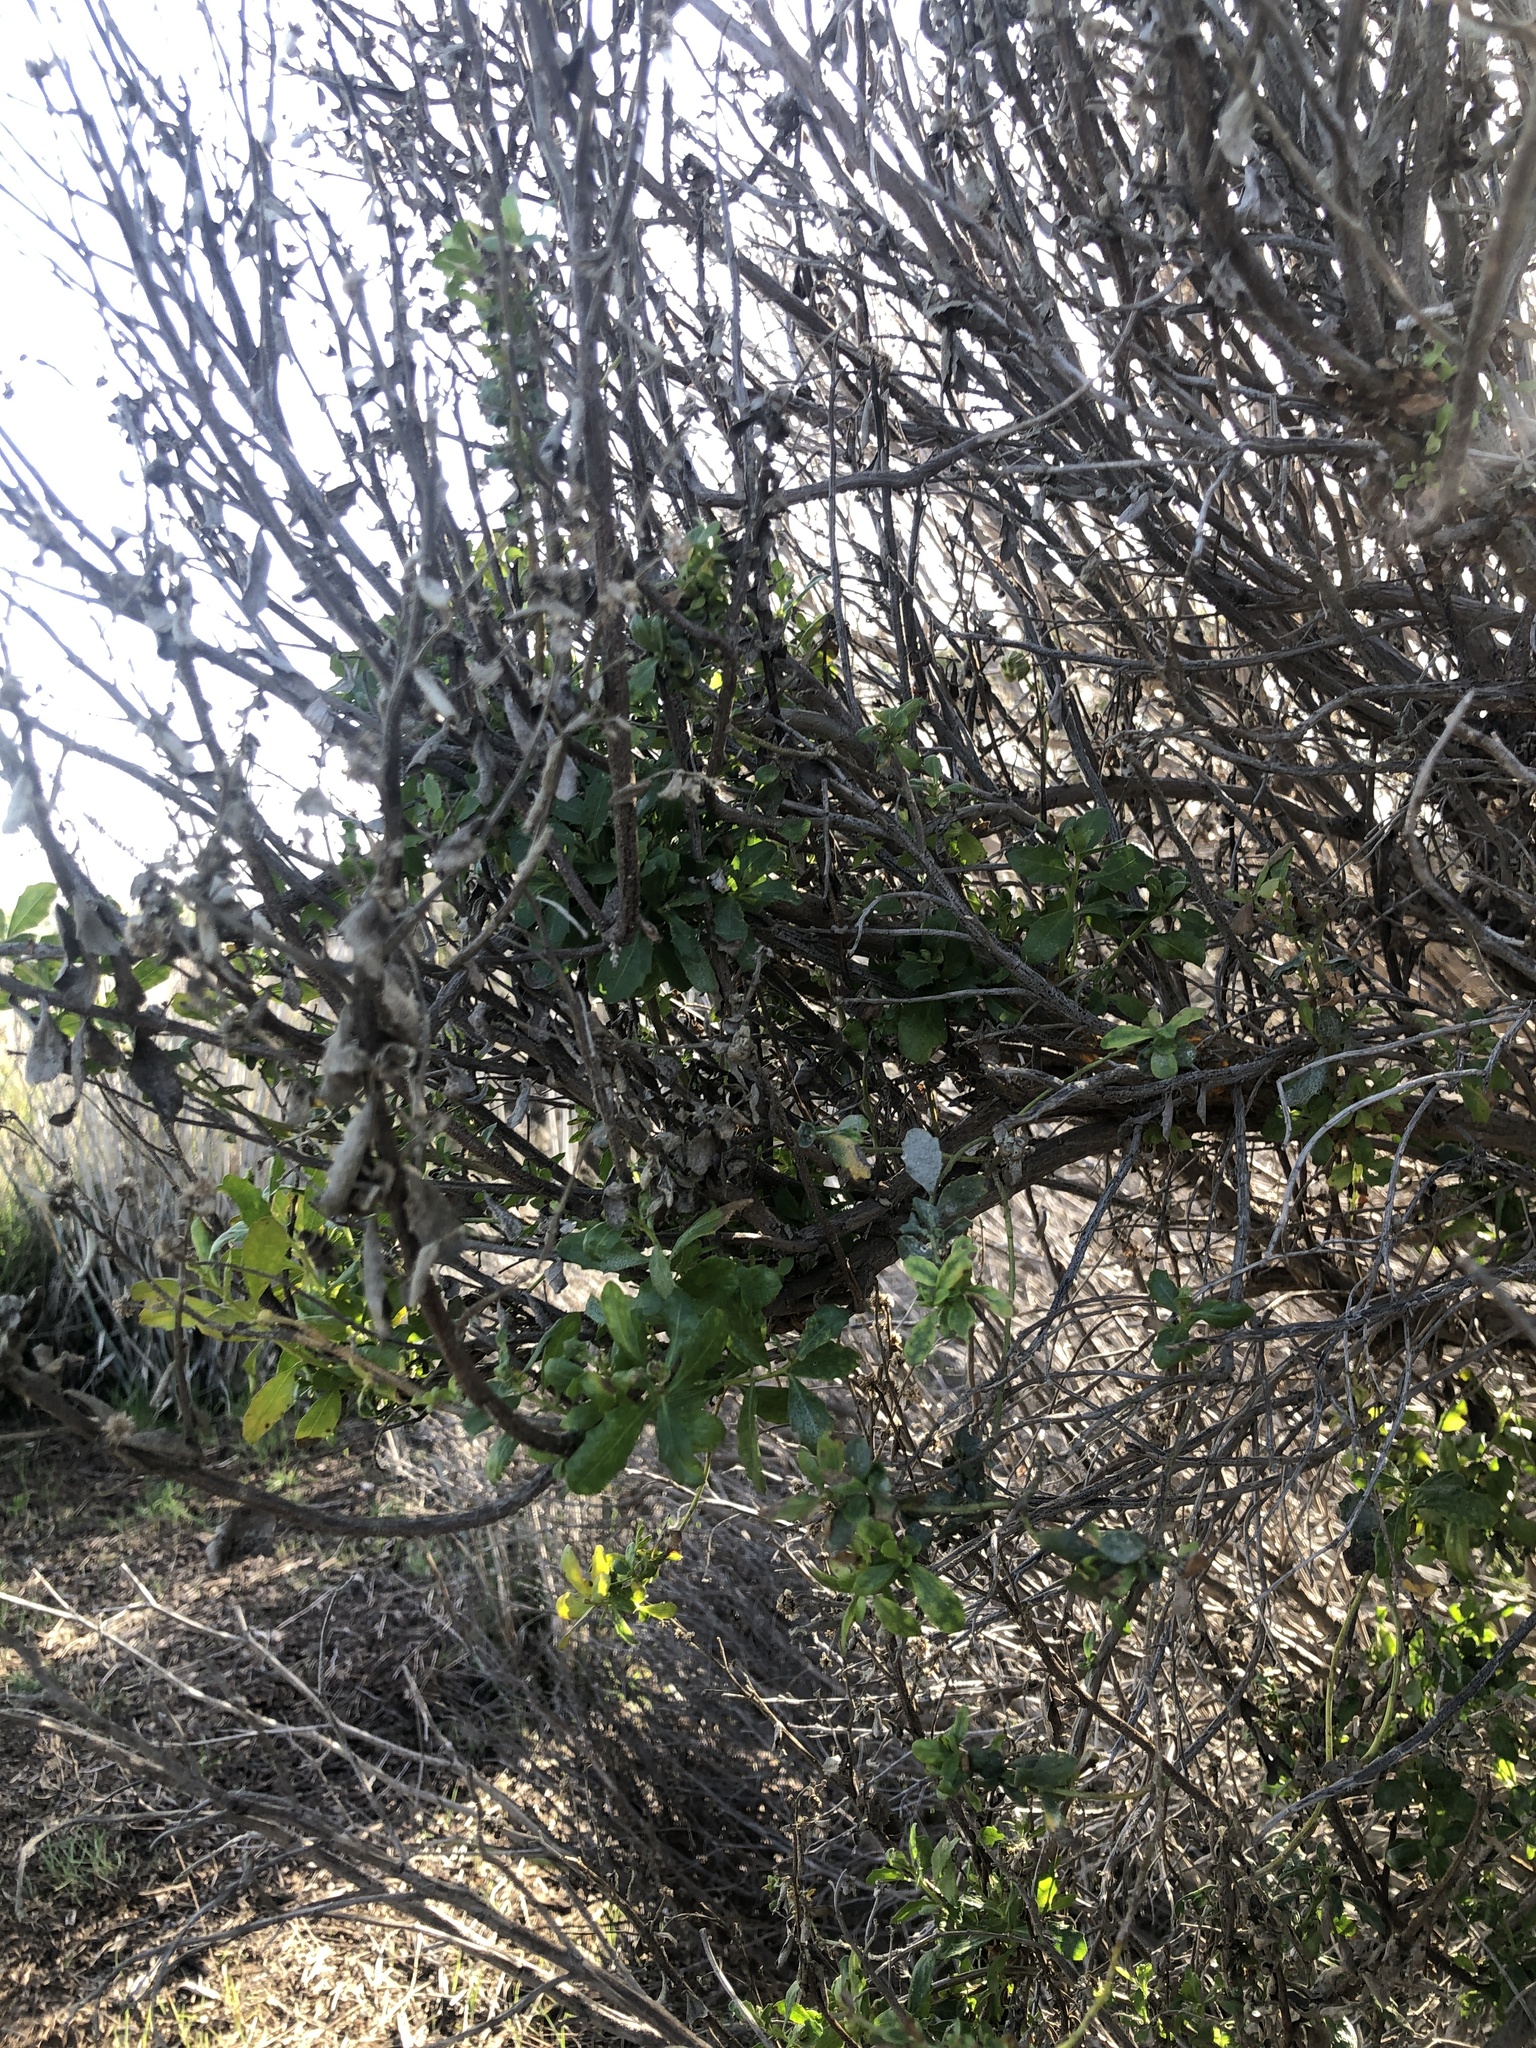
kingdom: Fungi
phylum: Basidiomycota
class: Pucciniomycetes
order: Pucciniales
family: Pucciniaceae
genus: Eriosporangium
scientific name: Eriosporangium evadens
